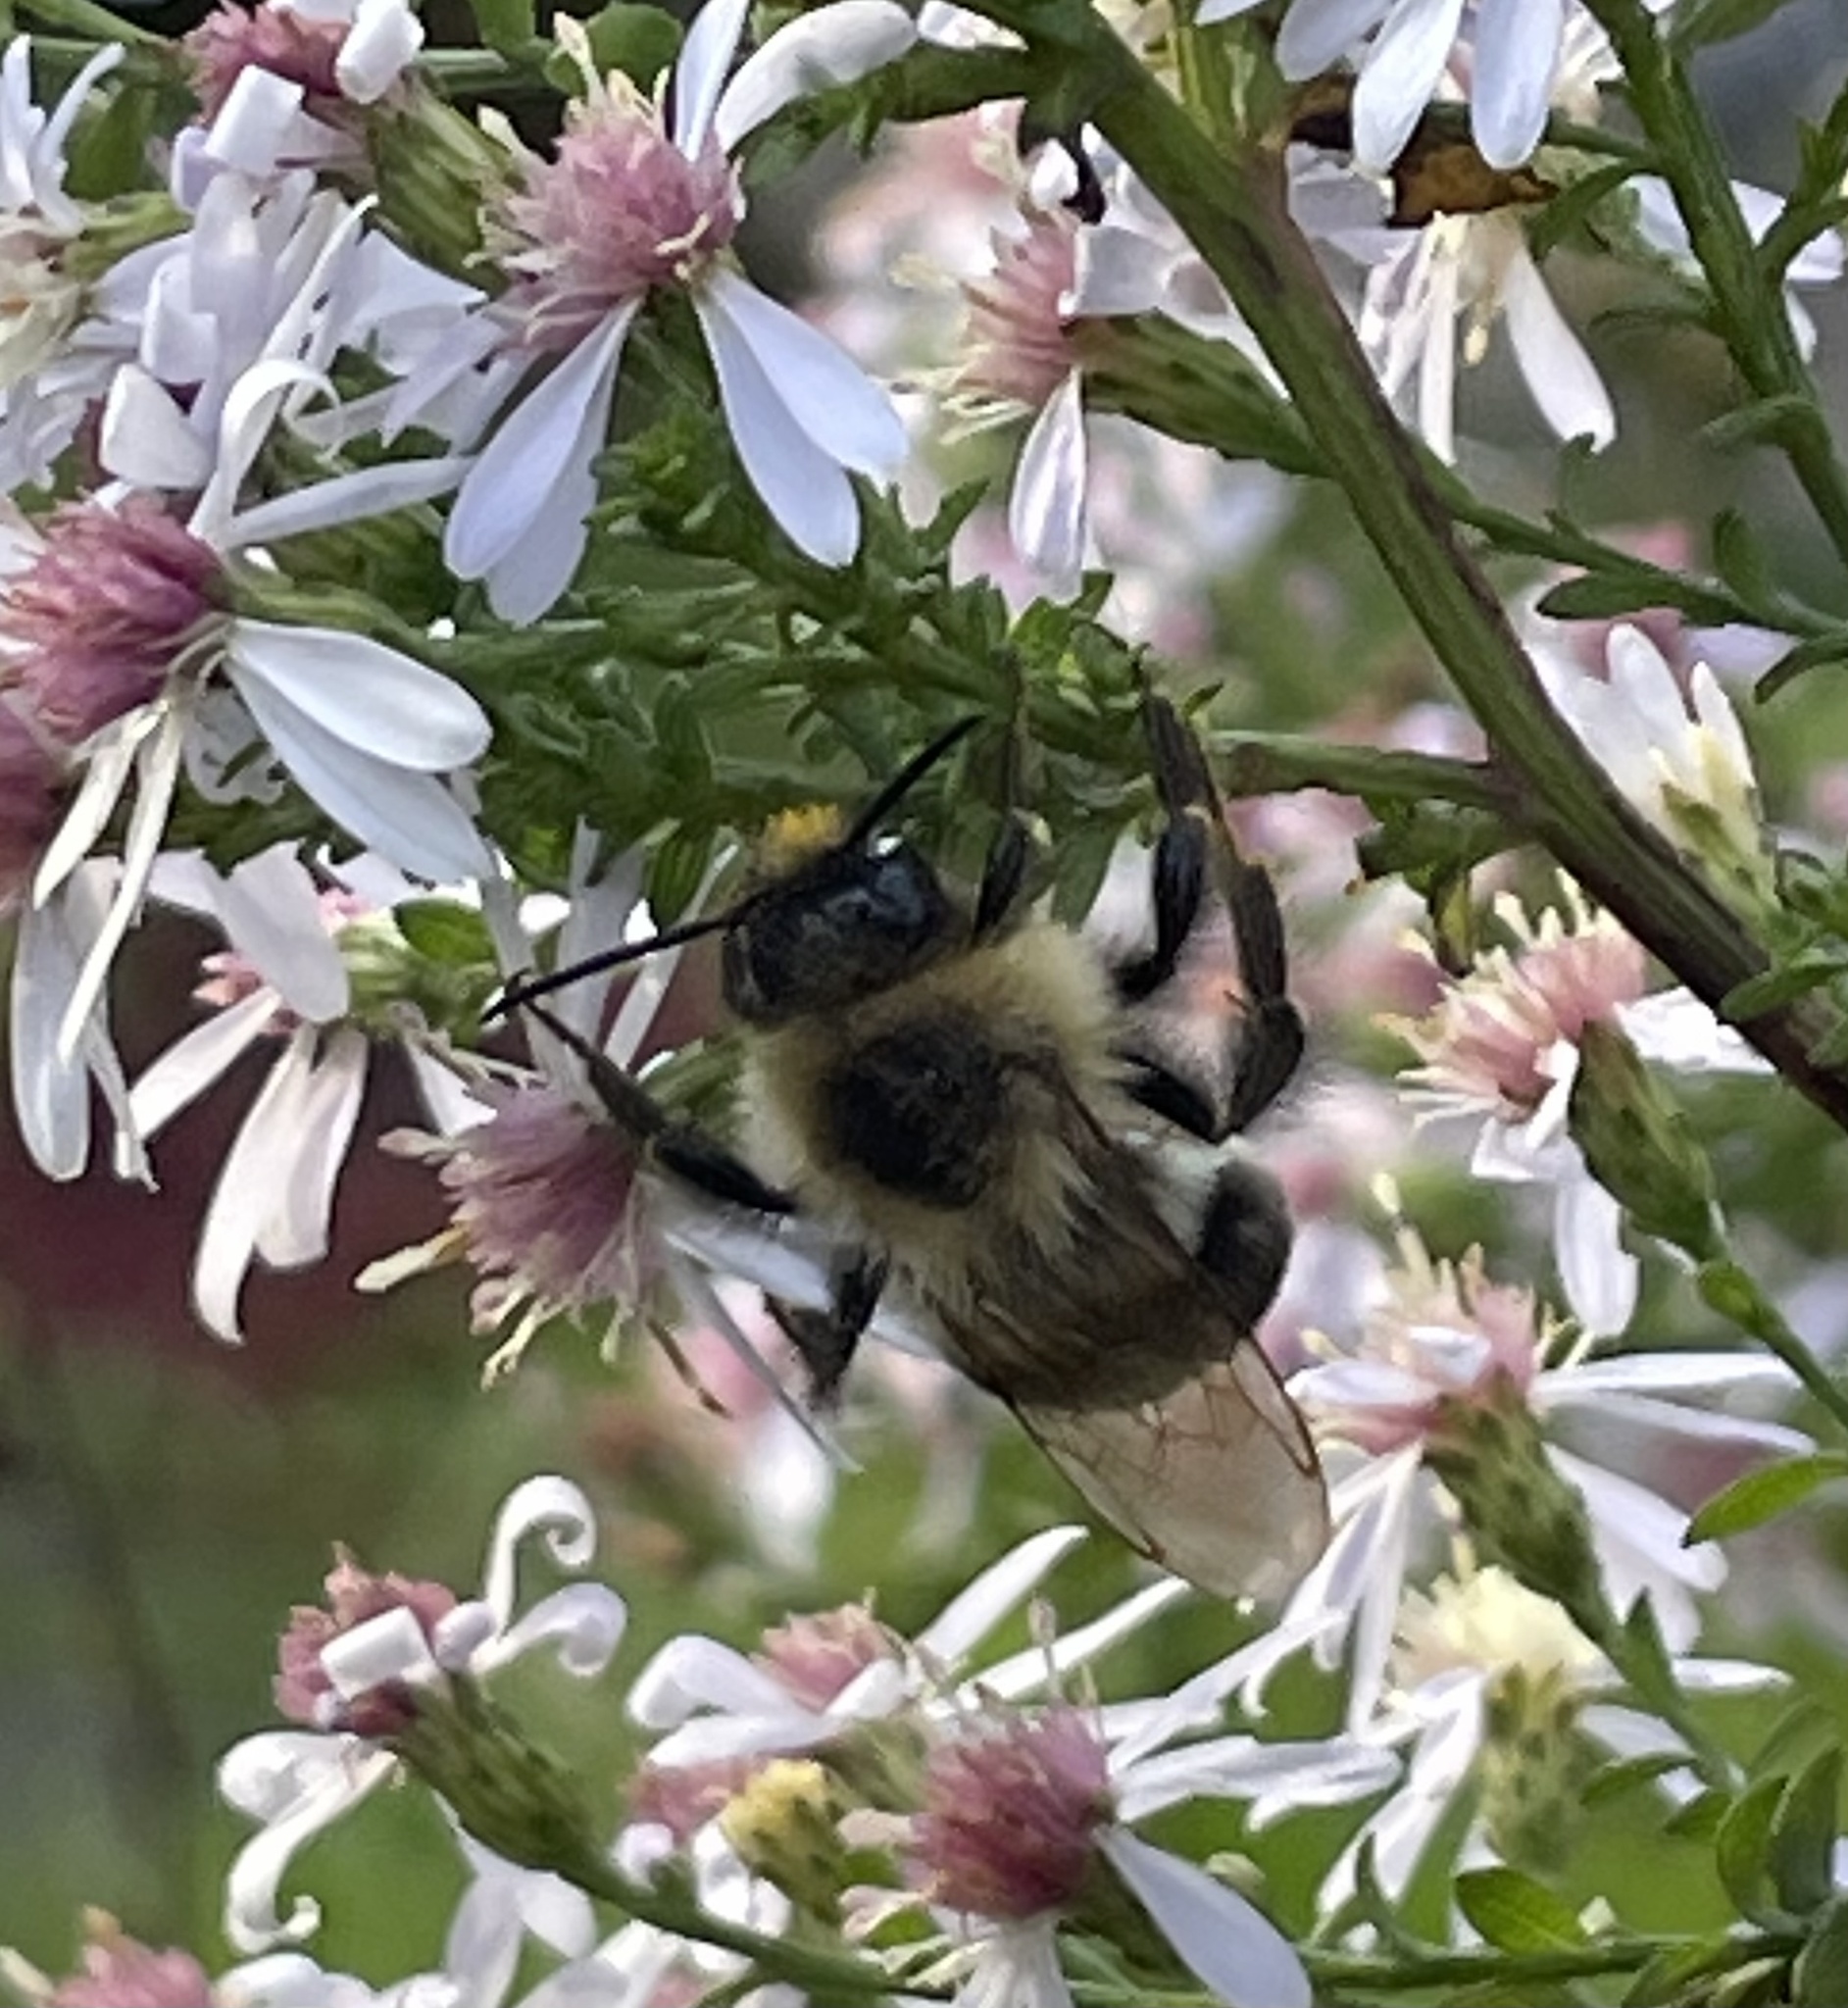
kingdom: Animalia
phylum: Arthropoda
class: Insecta
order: Hymenoptera
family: Apidae
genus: Bombus
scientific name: Bombus impatiens
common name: Common eastern bumble bee
